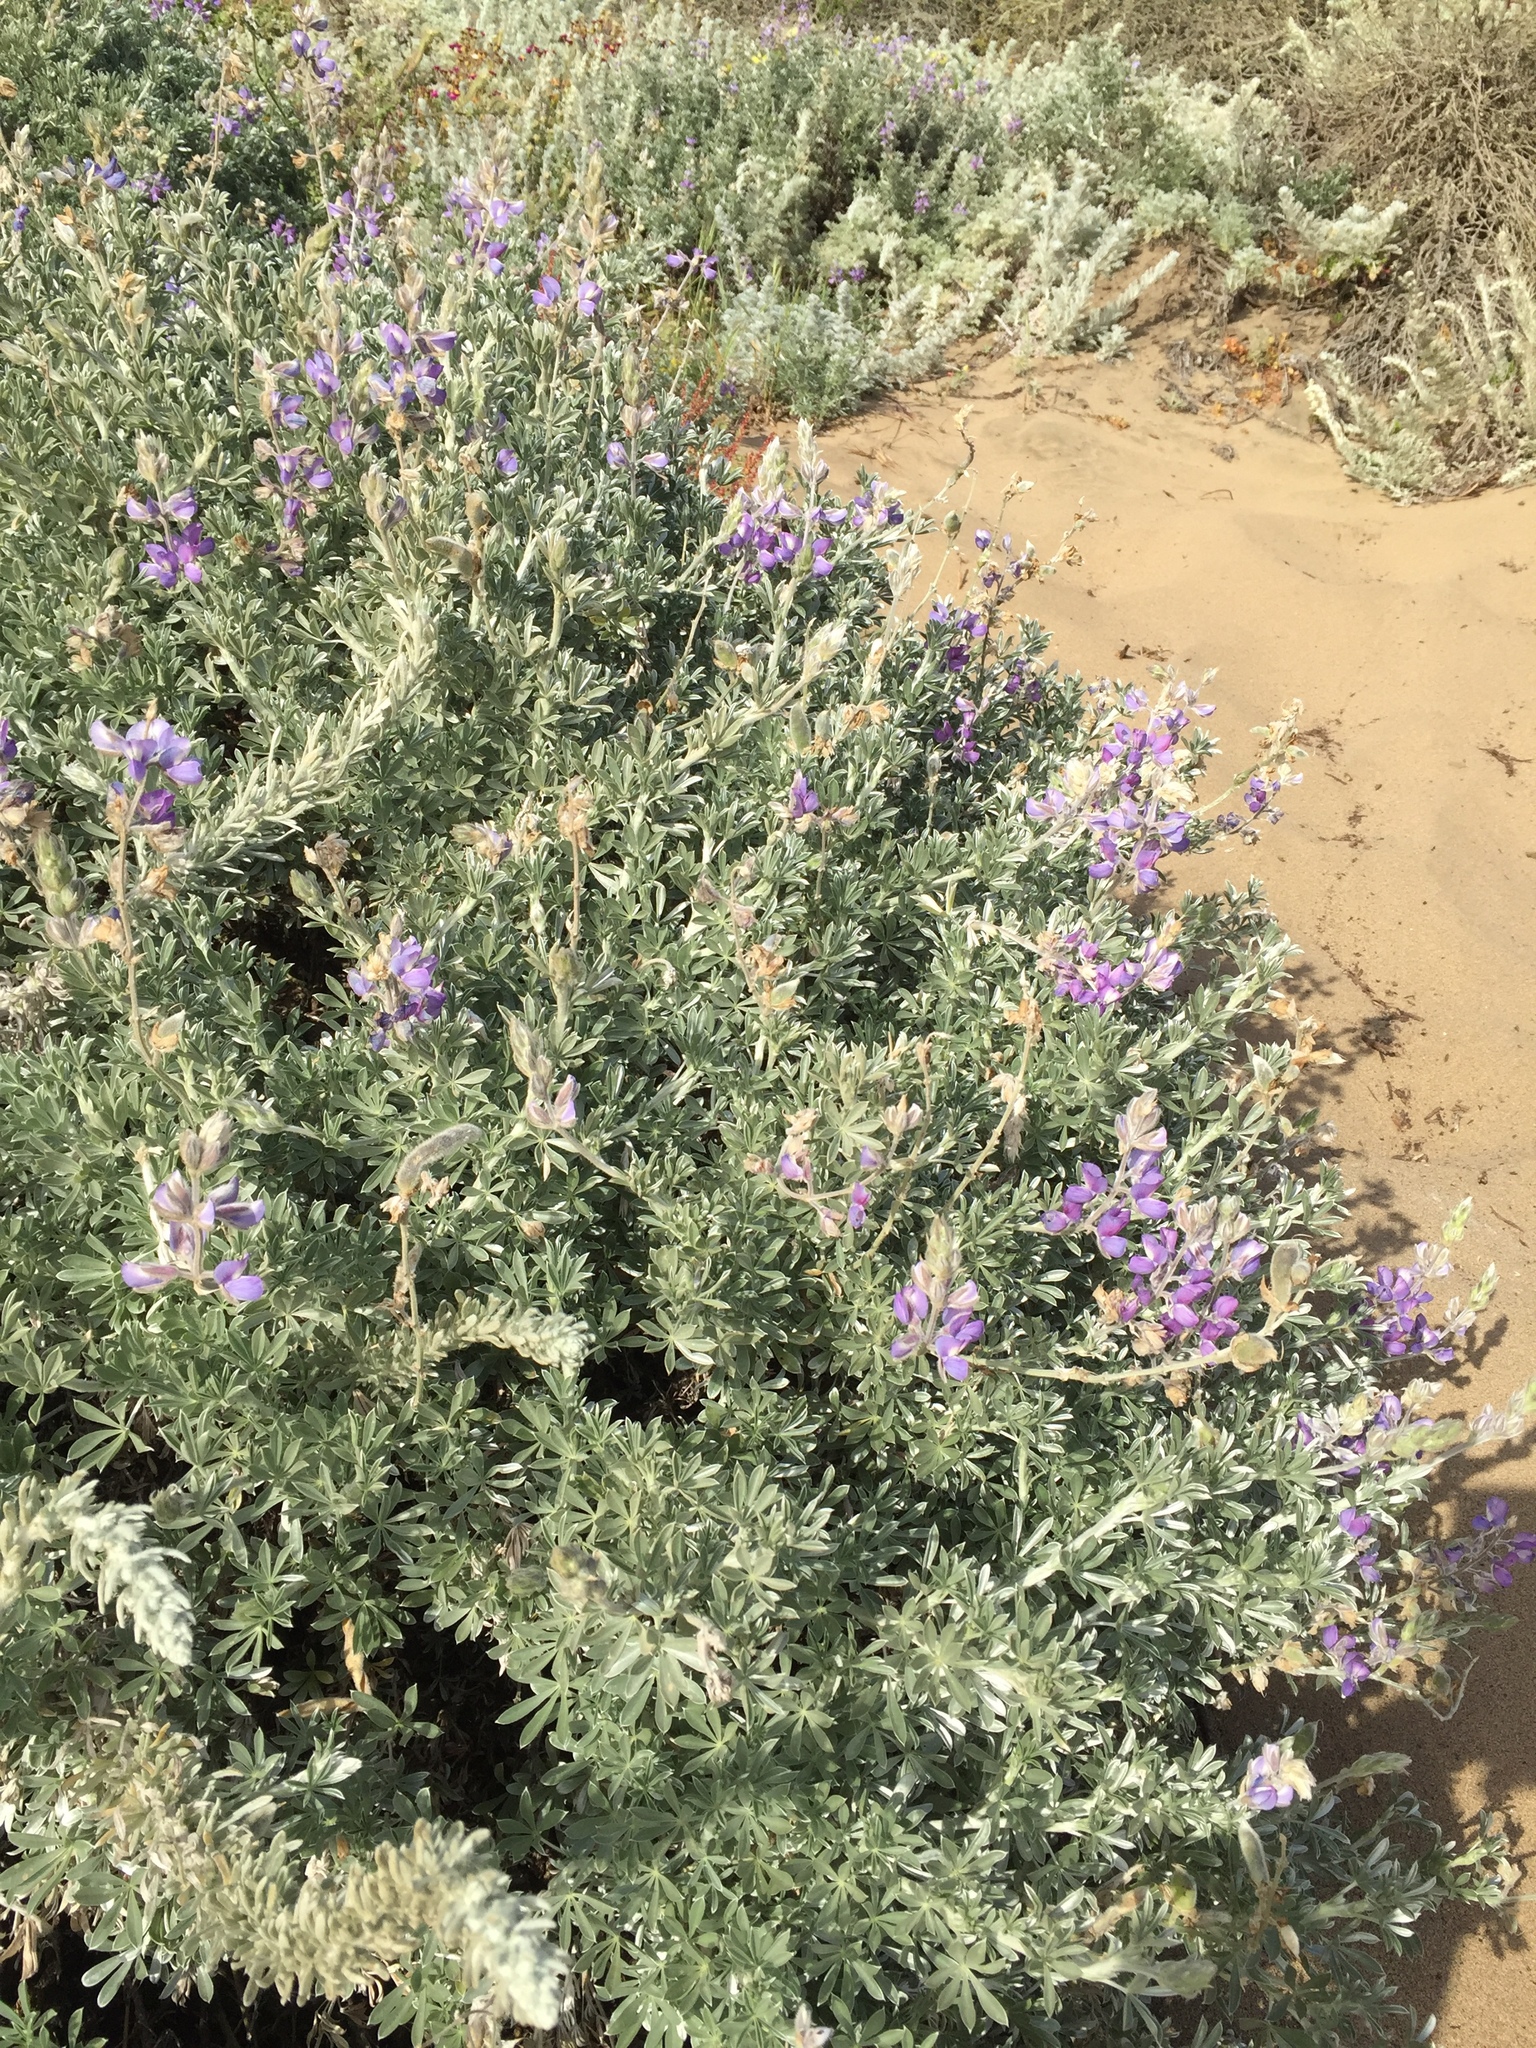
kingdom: Plantae
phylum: Tracheophyta
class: Magnoliopsida
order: Fabales
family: Fabaceae
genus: Lupinus
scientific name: Lupinus chamissonis
